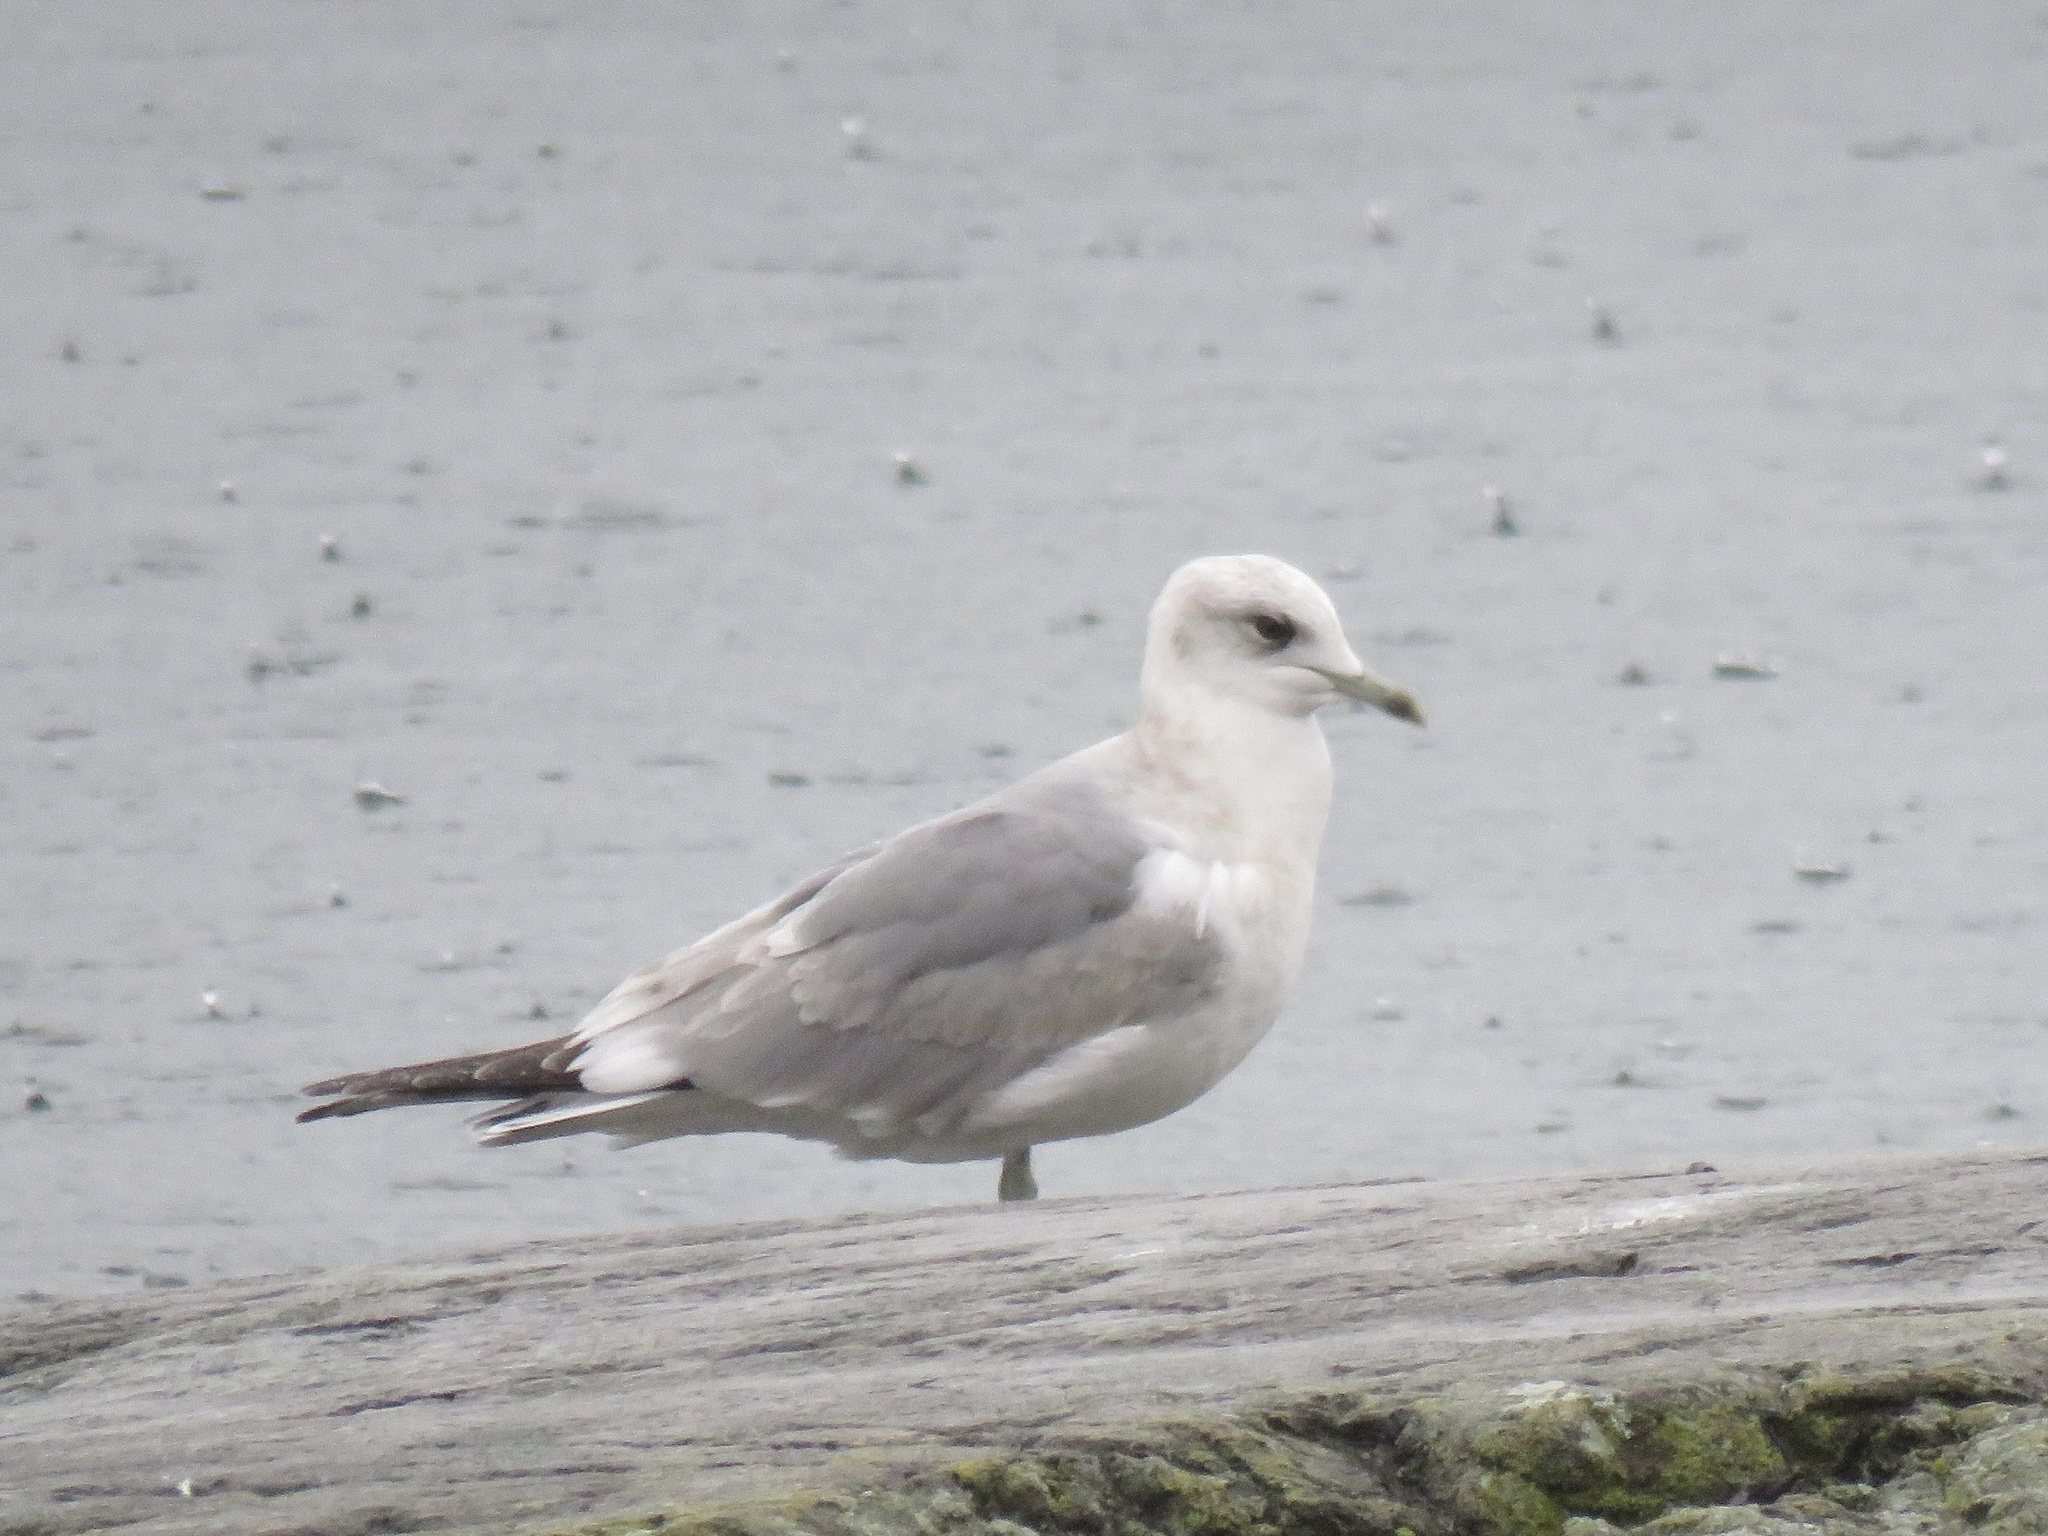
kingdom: Animalia
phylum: Chordata
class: Aves
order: Charadriiformes
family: Laridae
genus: Larus
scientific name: Larus brachyrhynchus
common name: Short-billed gull
